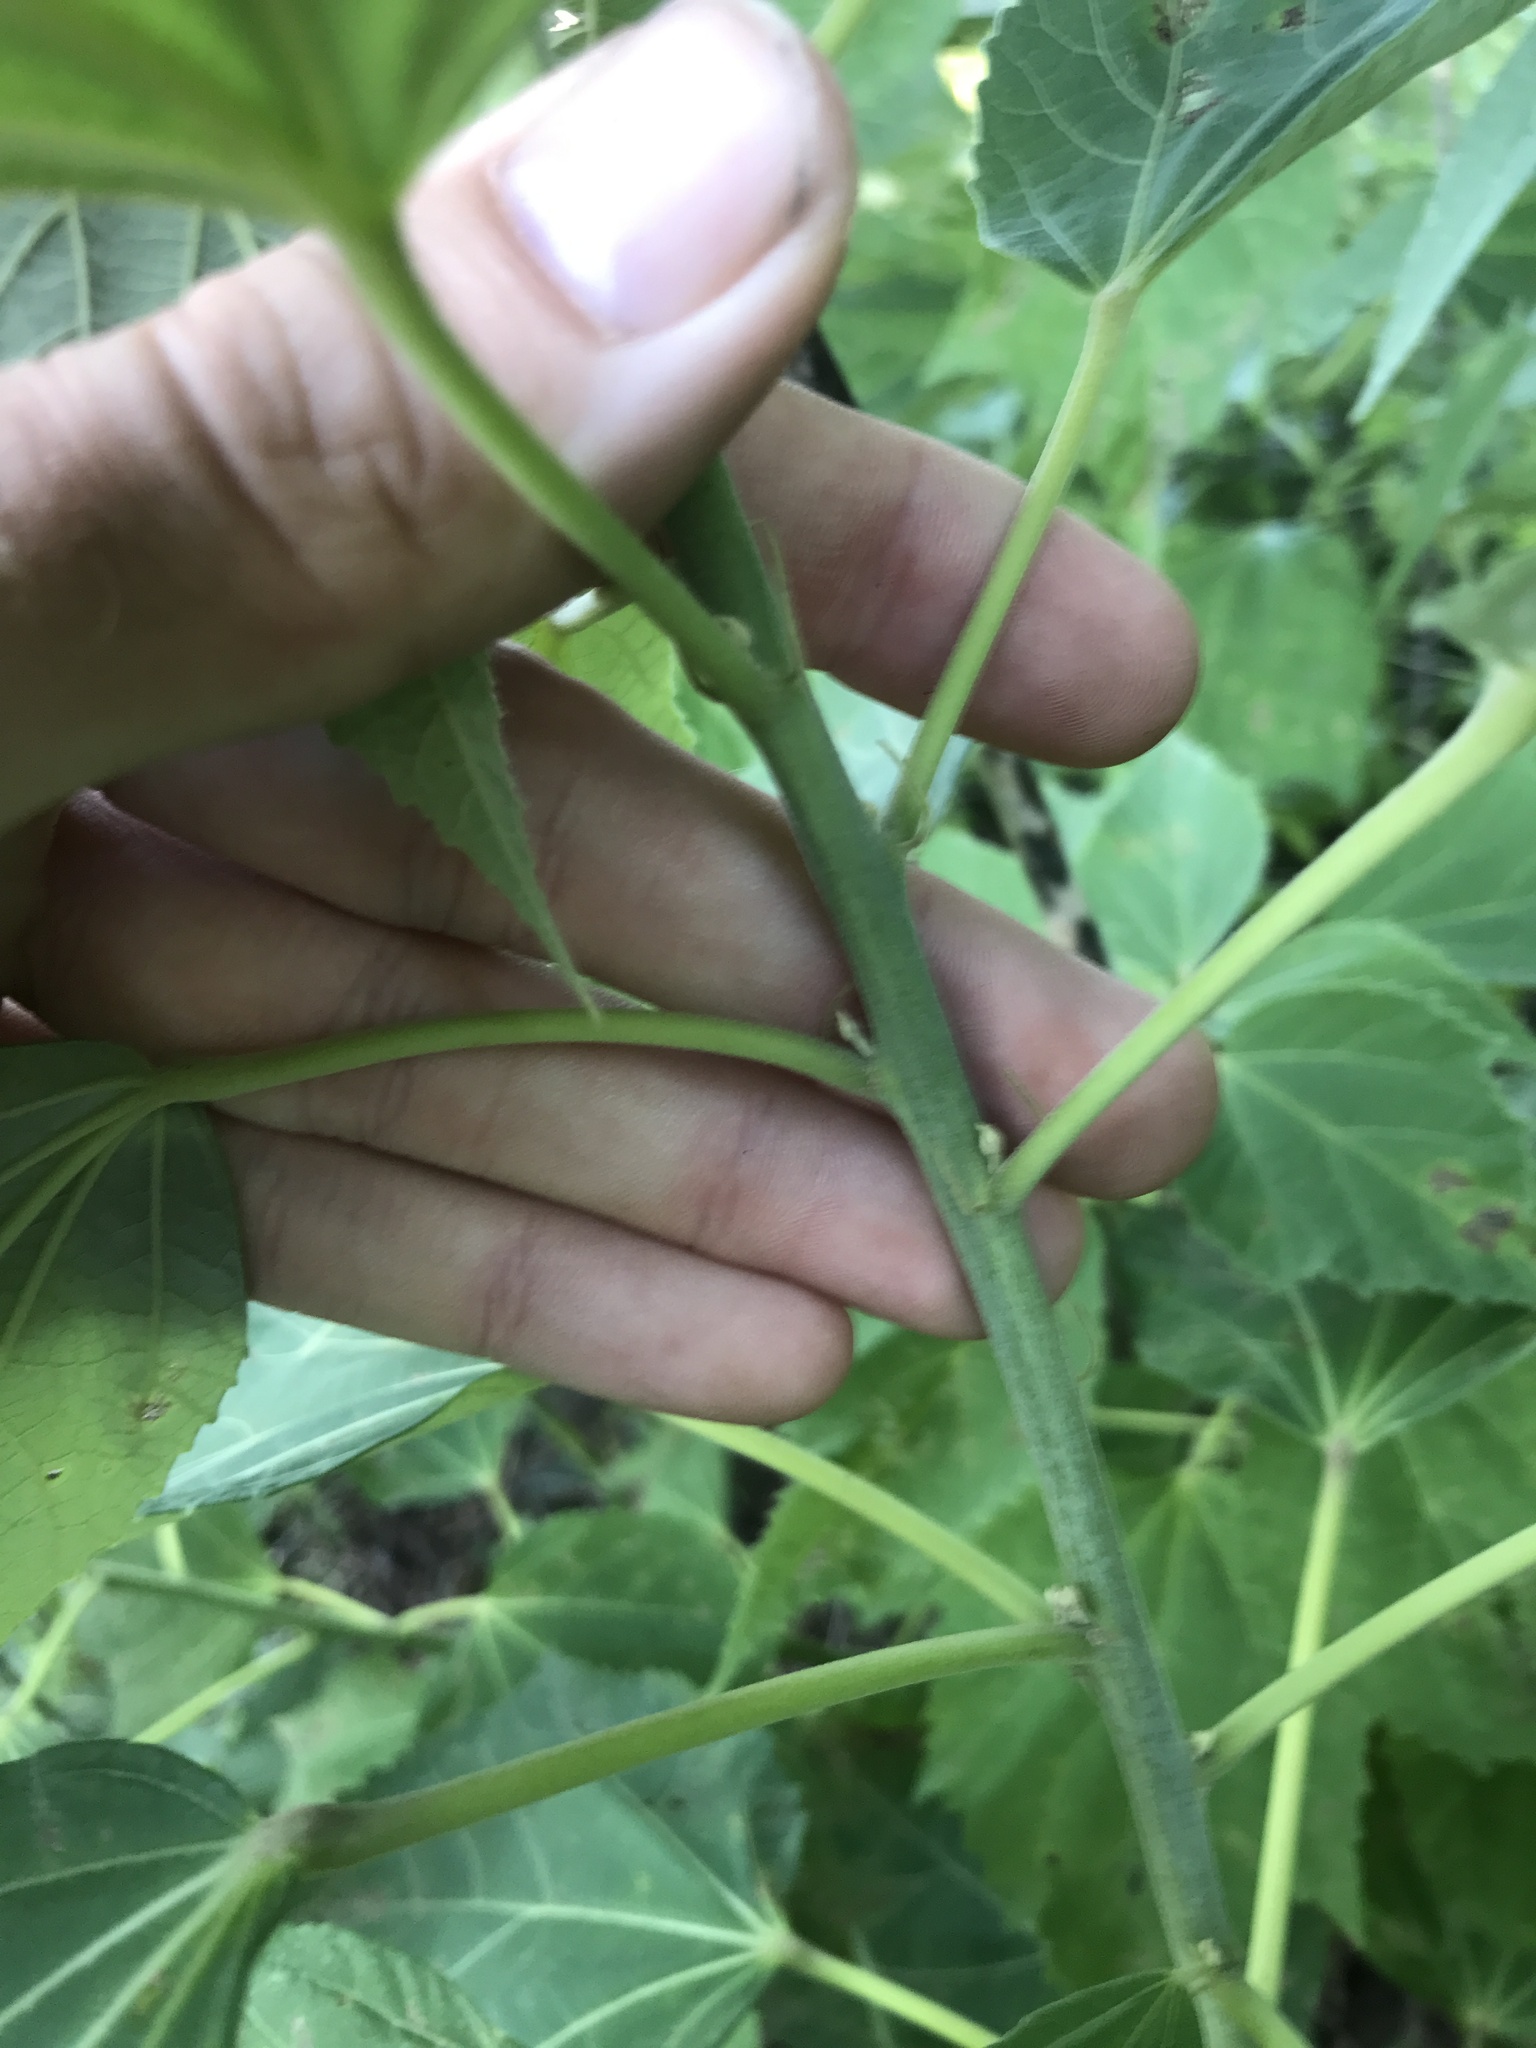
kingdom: Plantae
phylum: Tracheophyta
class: Magnoliopsida
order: Malvales
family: Malvaceae
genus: Hibiscus
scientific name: Hibiscus moscheutos
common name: Common rose-mallow
